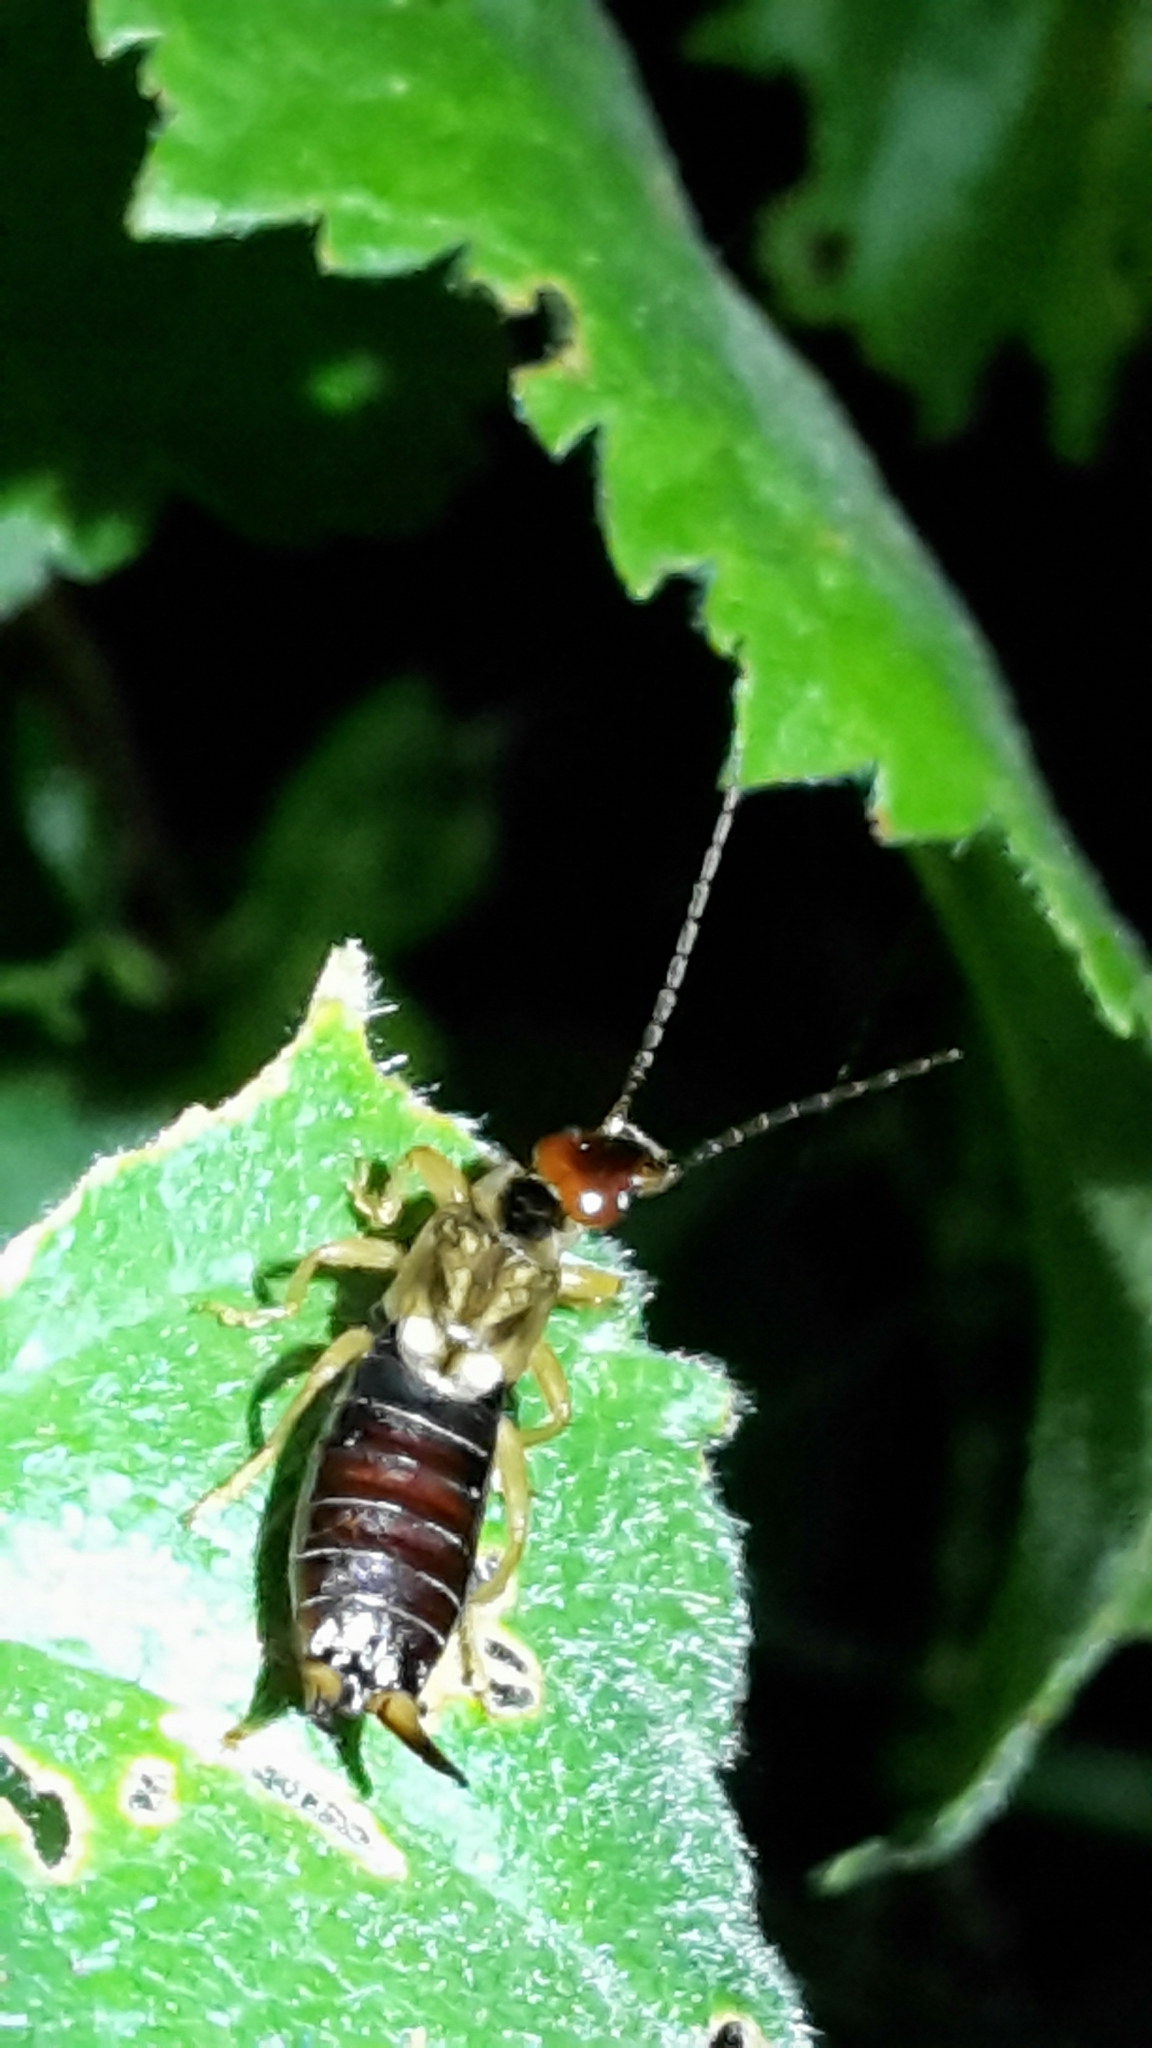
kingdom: Animalia
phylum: Arthropoda
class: Insecta
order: Dermaptera
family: Forficulidae
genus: Forficula
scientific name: Forficula dentata
